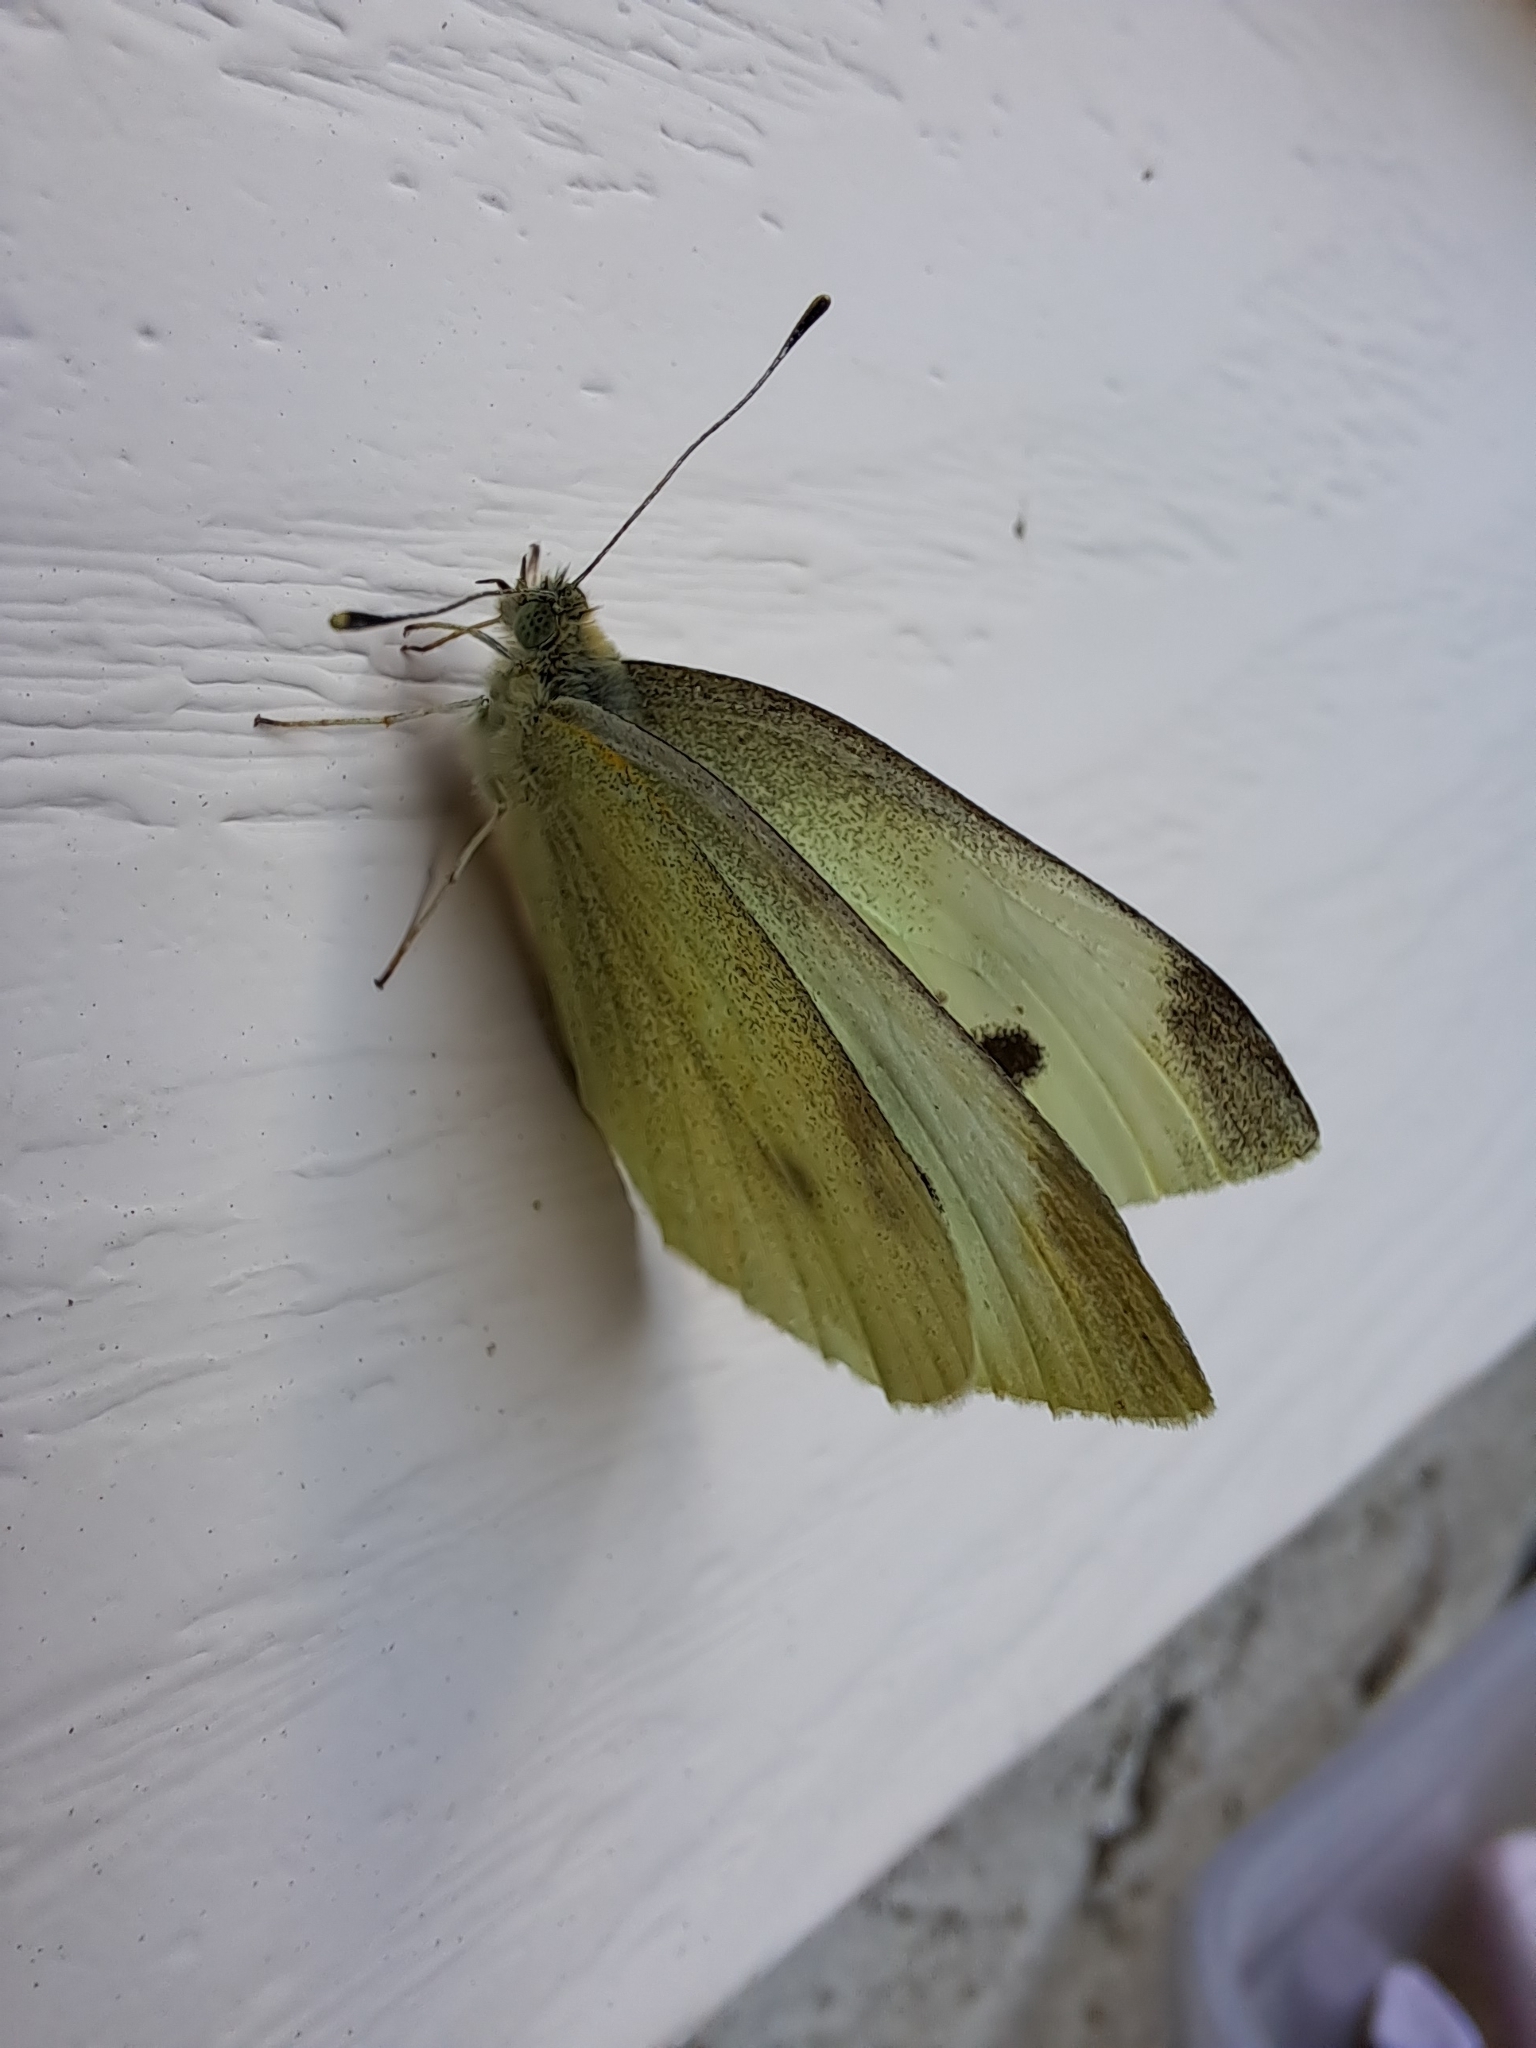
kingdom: Animalia
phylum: Arthropoda
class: Insecta
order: Lepidoptera
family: Pieridae
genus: Pieris
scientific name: Pieris rapae
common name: Small white
